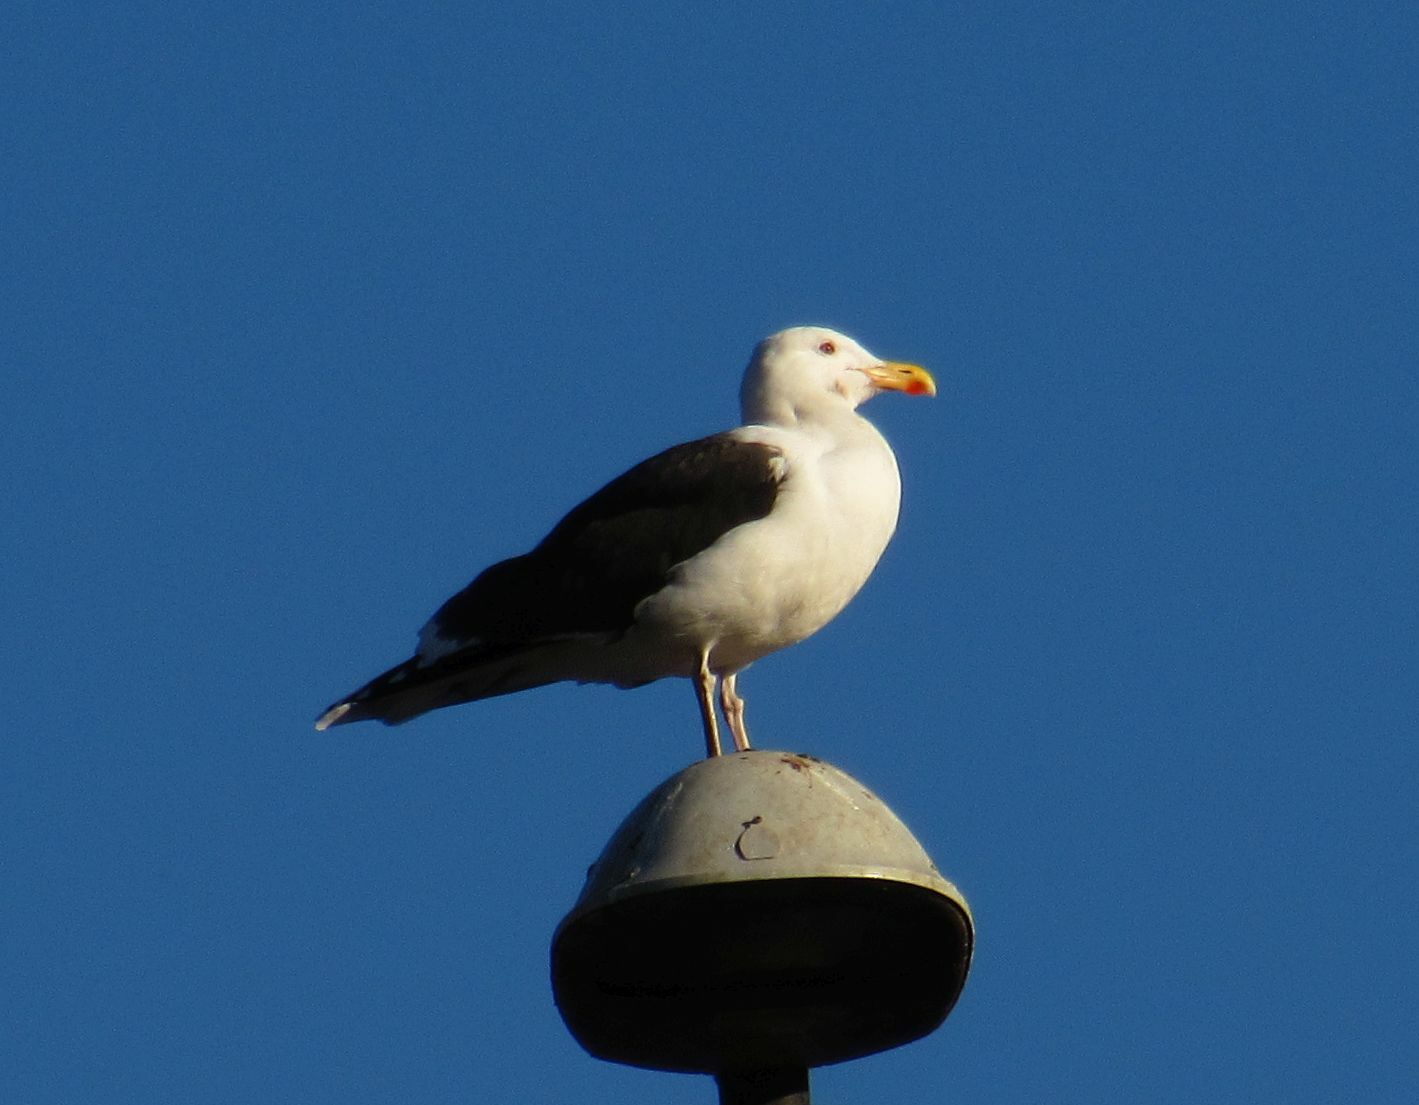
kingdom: Animalia
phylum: Chordata
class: Aves
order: Charadriiformes
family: Laridae
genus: Larus
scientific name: Larus marinus
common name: Great black-backed gull
